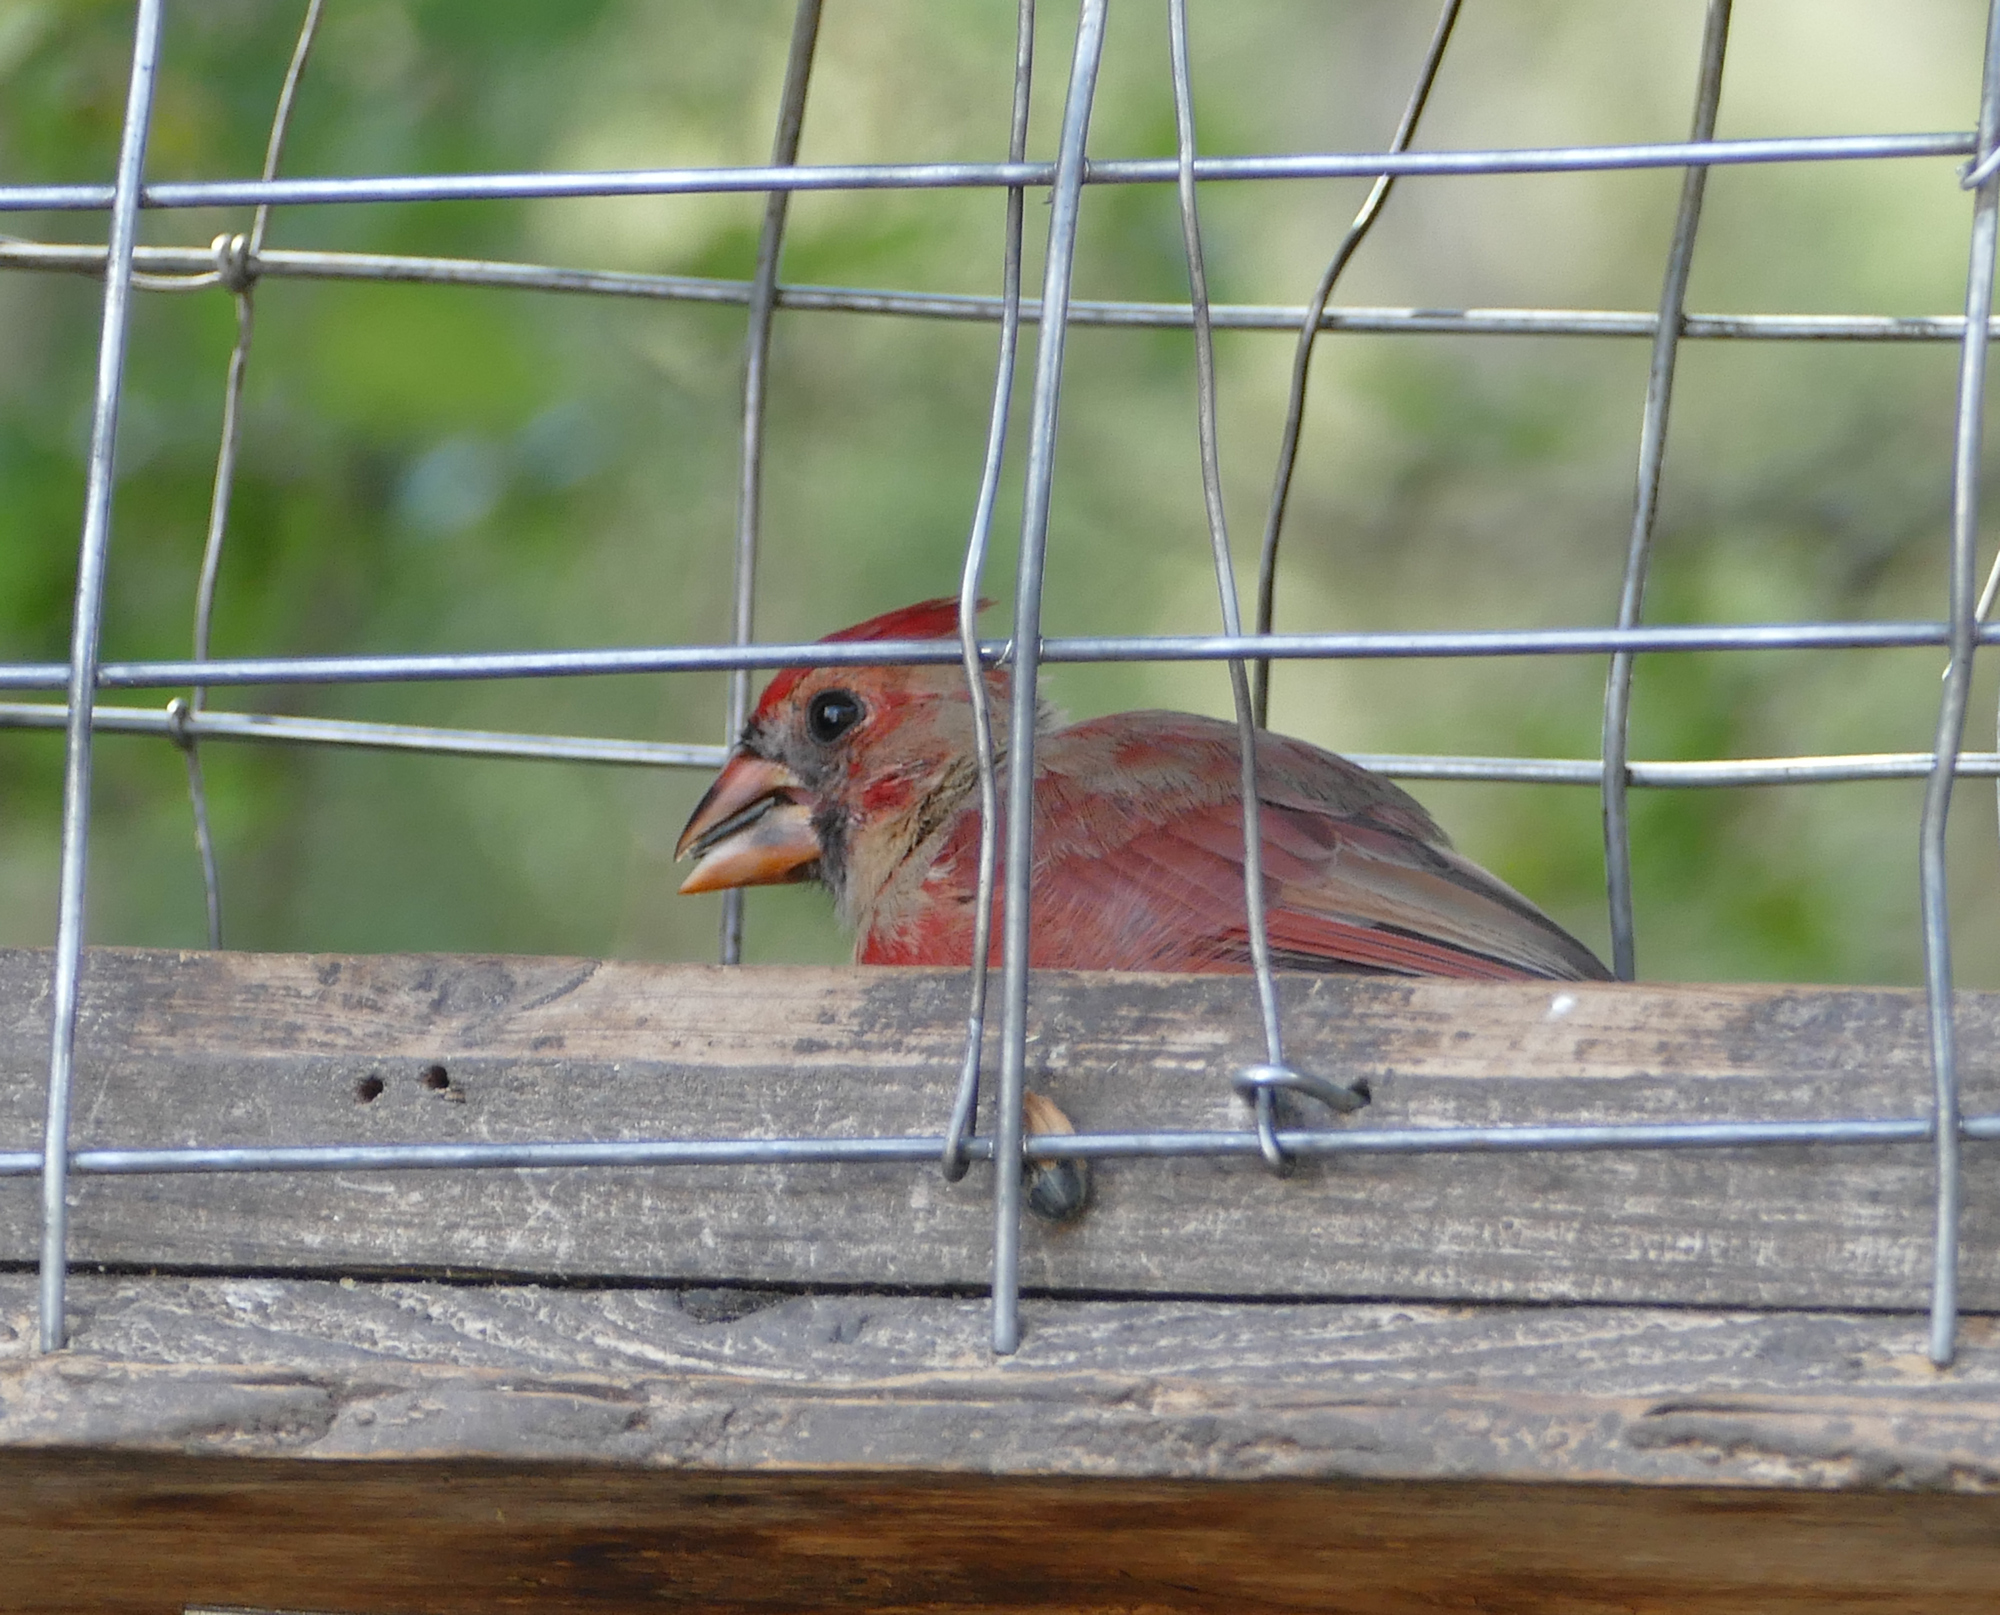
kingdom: Animalia
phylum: Chordata
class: Aves
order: Passeriformes
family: Cardinalidae
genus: Cardinalis
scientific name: Cardinalis cardinalis
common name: Northern cardinal
